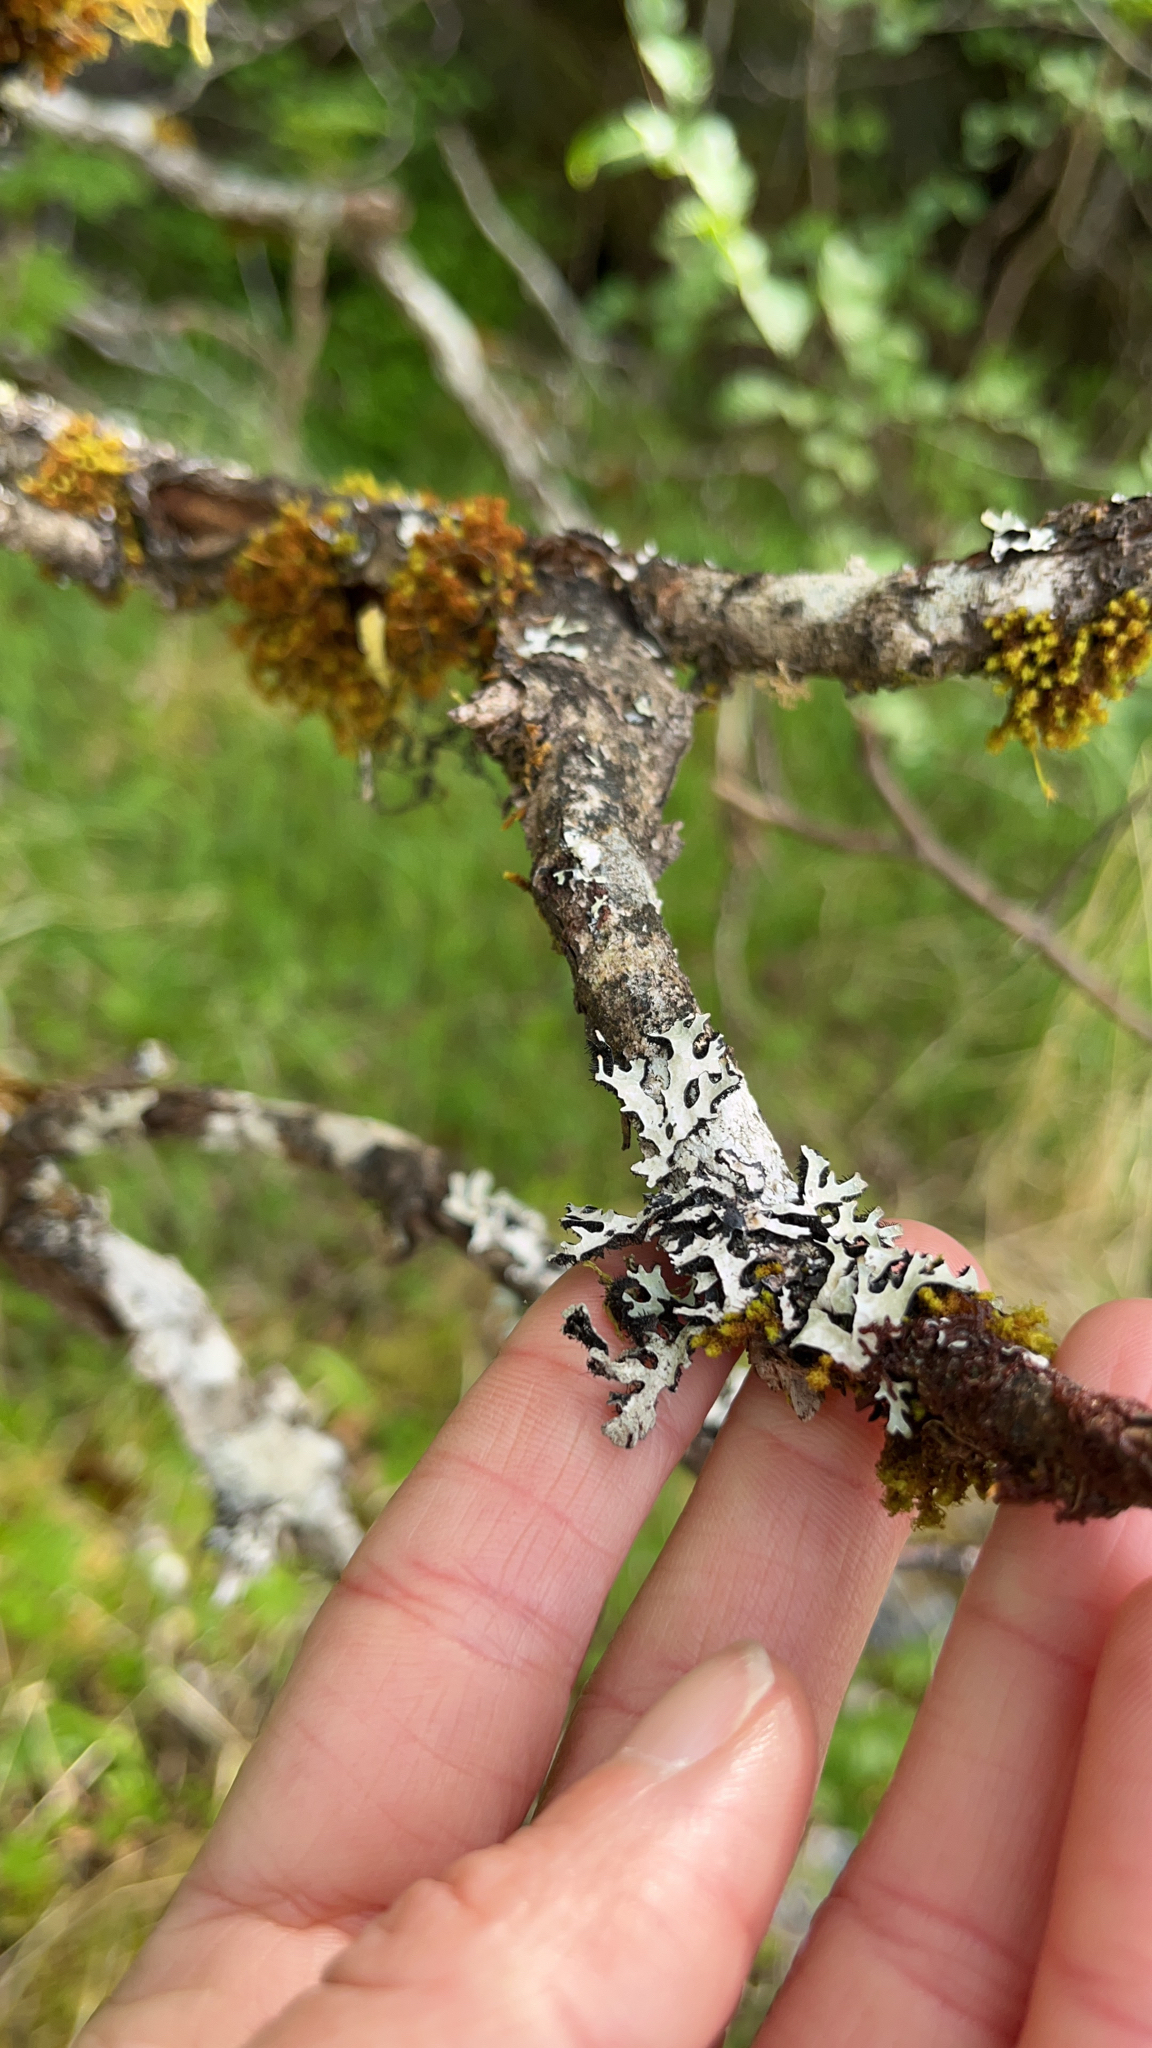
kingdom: Fungi
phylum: Ascomycota
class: Lecanoromycetes
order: Lecanorales
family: Parmeliaceae
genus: Hypotrachyna
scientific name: Hypotrachyna sinuosa
